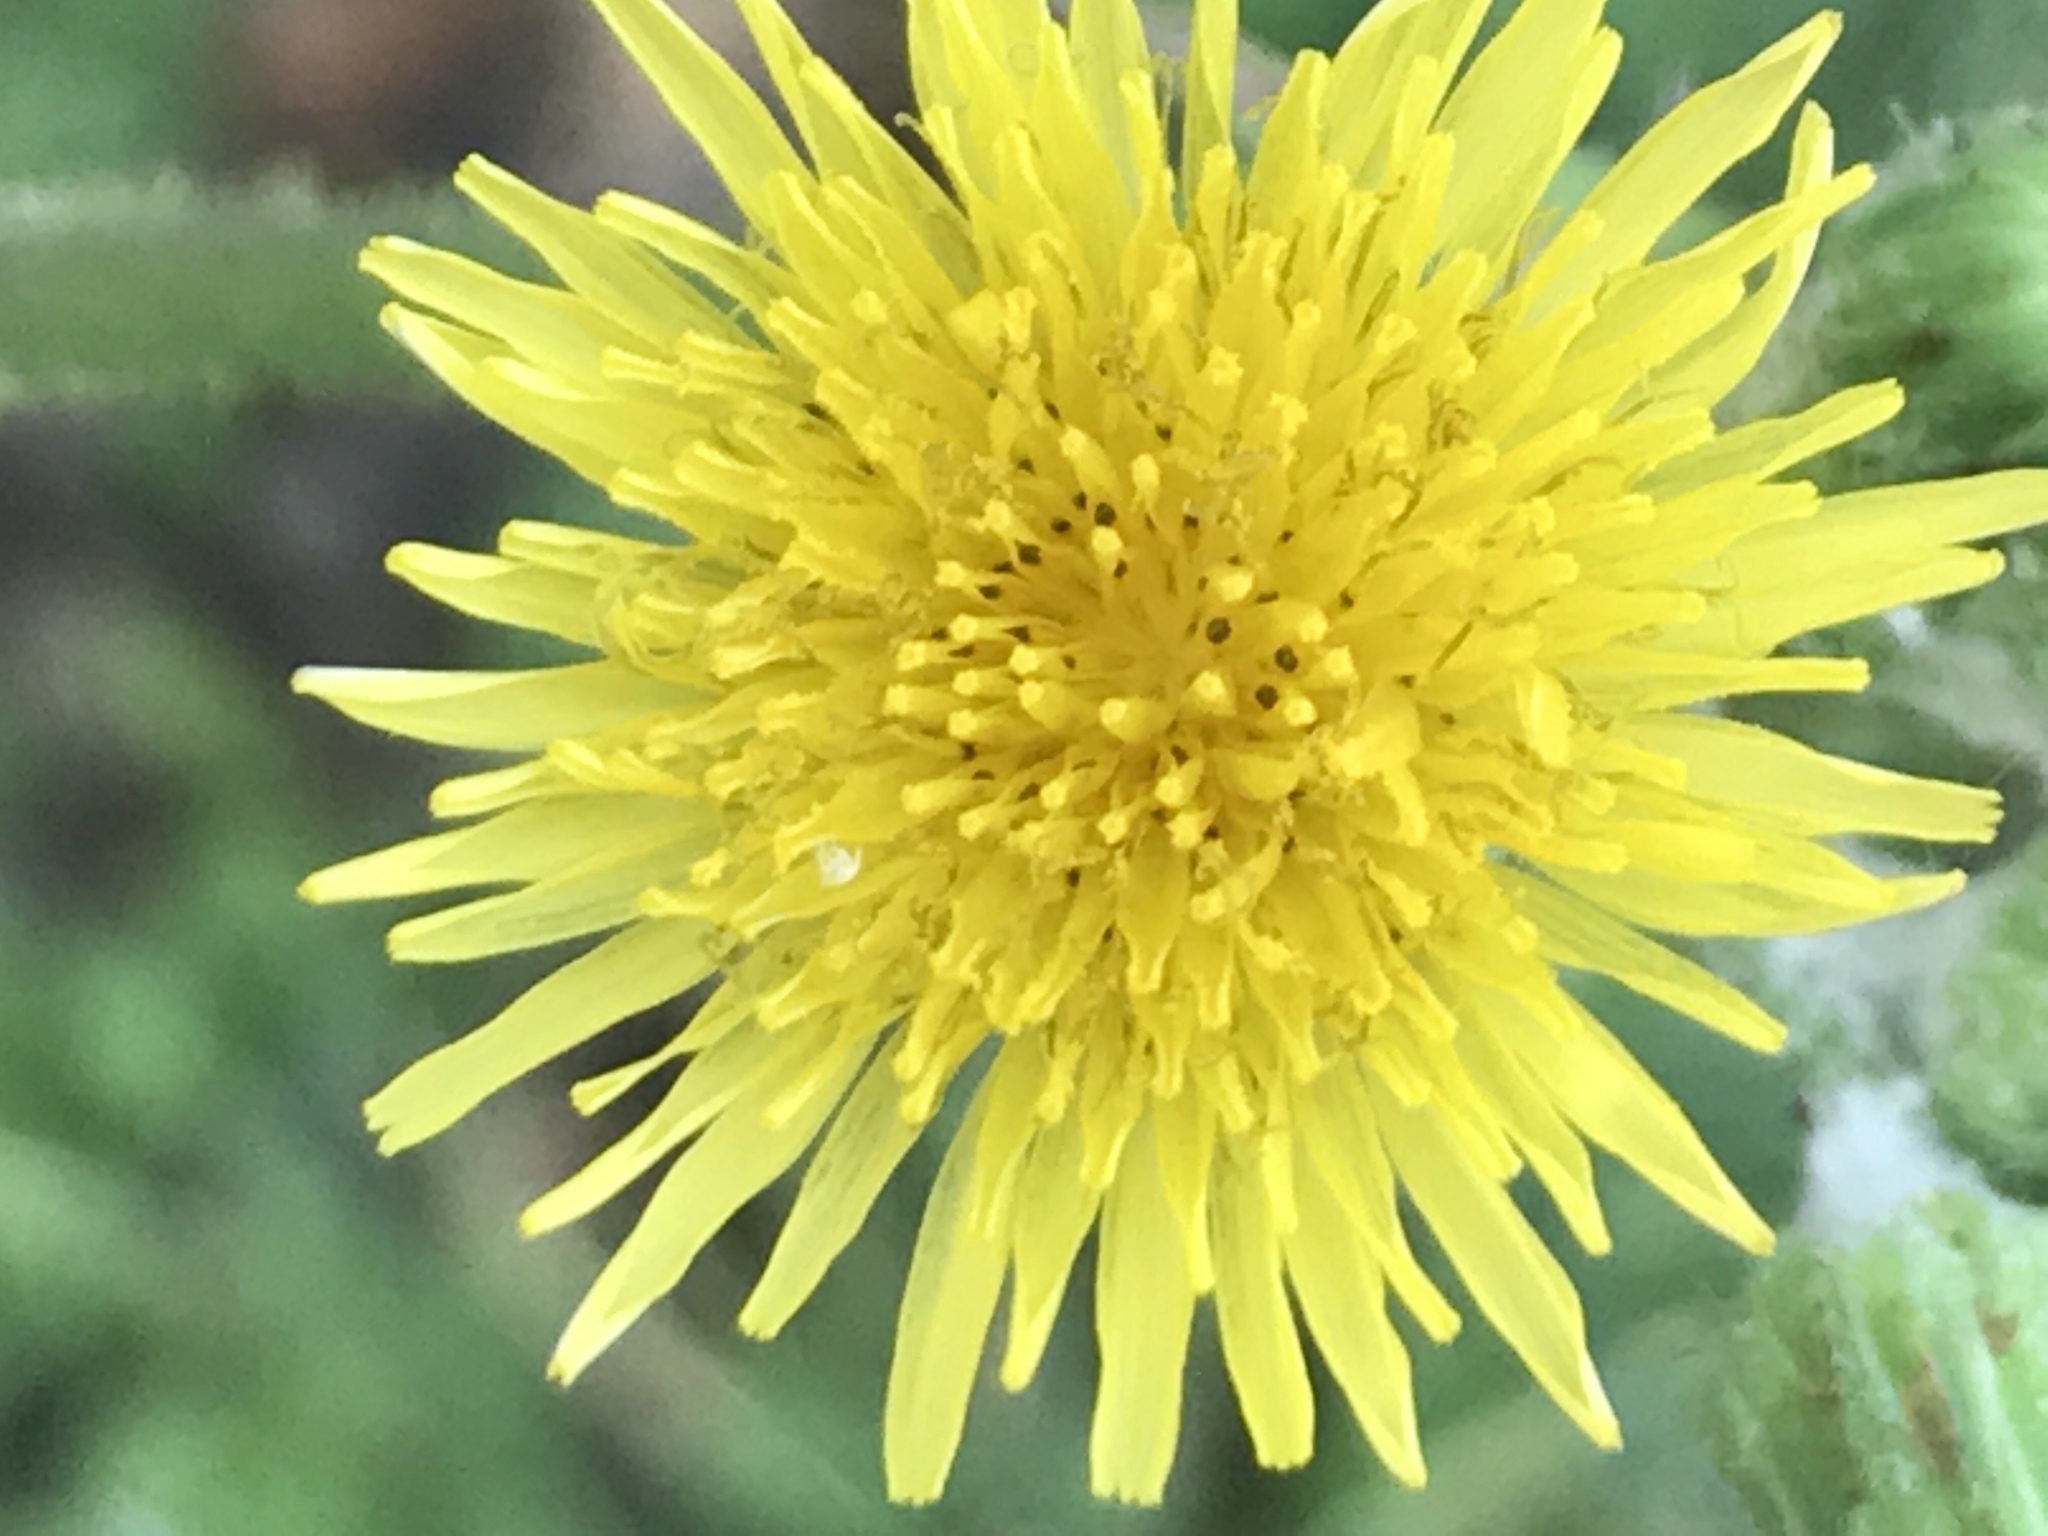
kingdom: Plantae
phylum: Tracheophyta
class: Magnoliopsida
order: Asterales
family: Asteraceae
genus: Sonchus
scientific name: Sonchus oleraceus
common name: Common sowthistle
